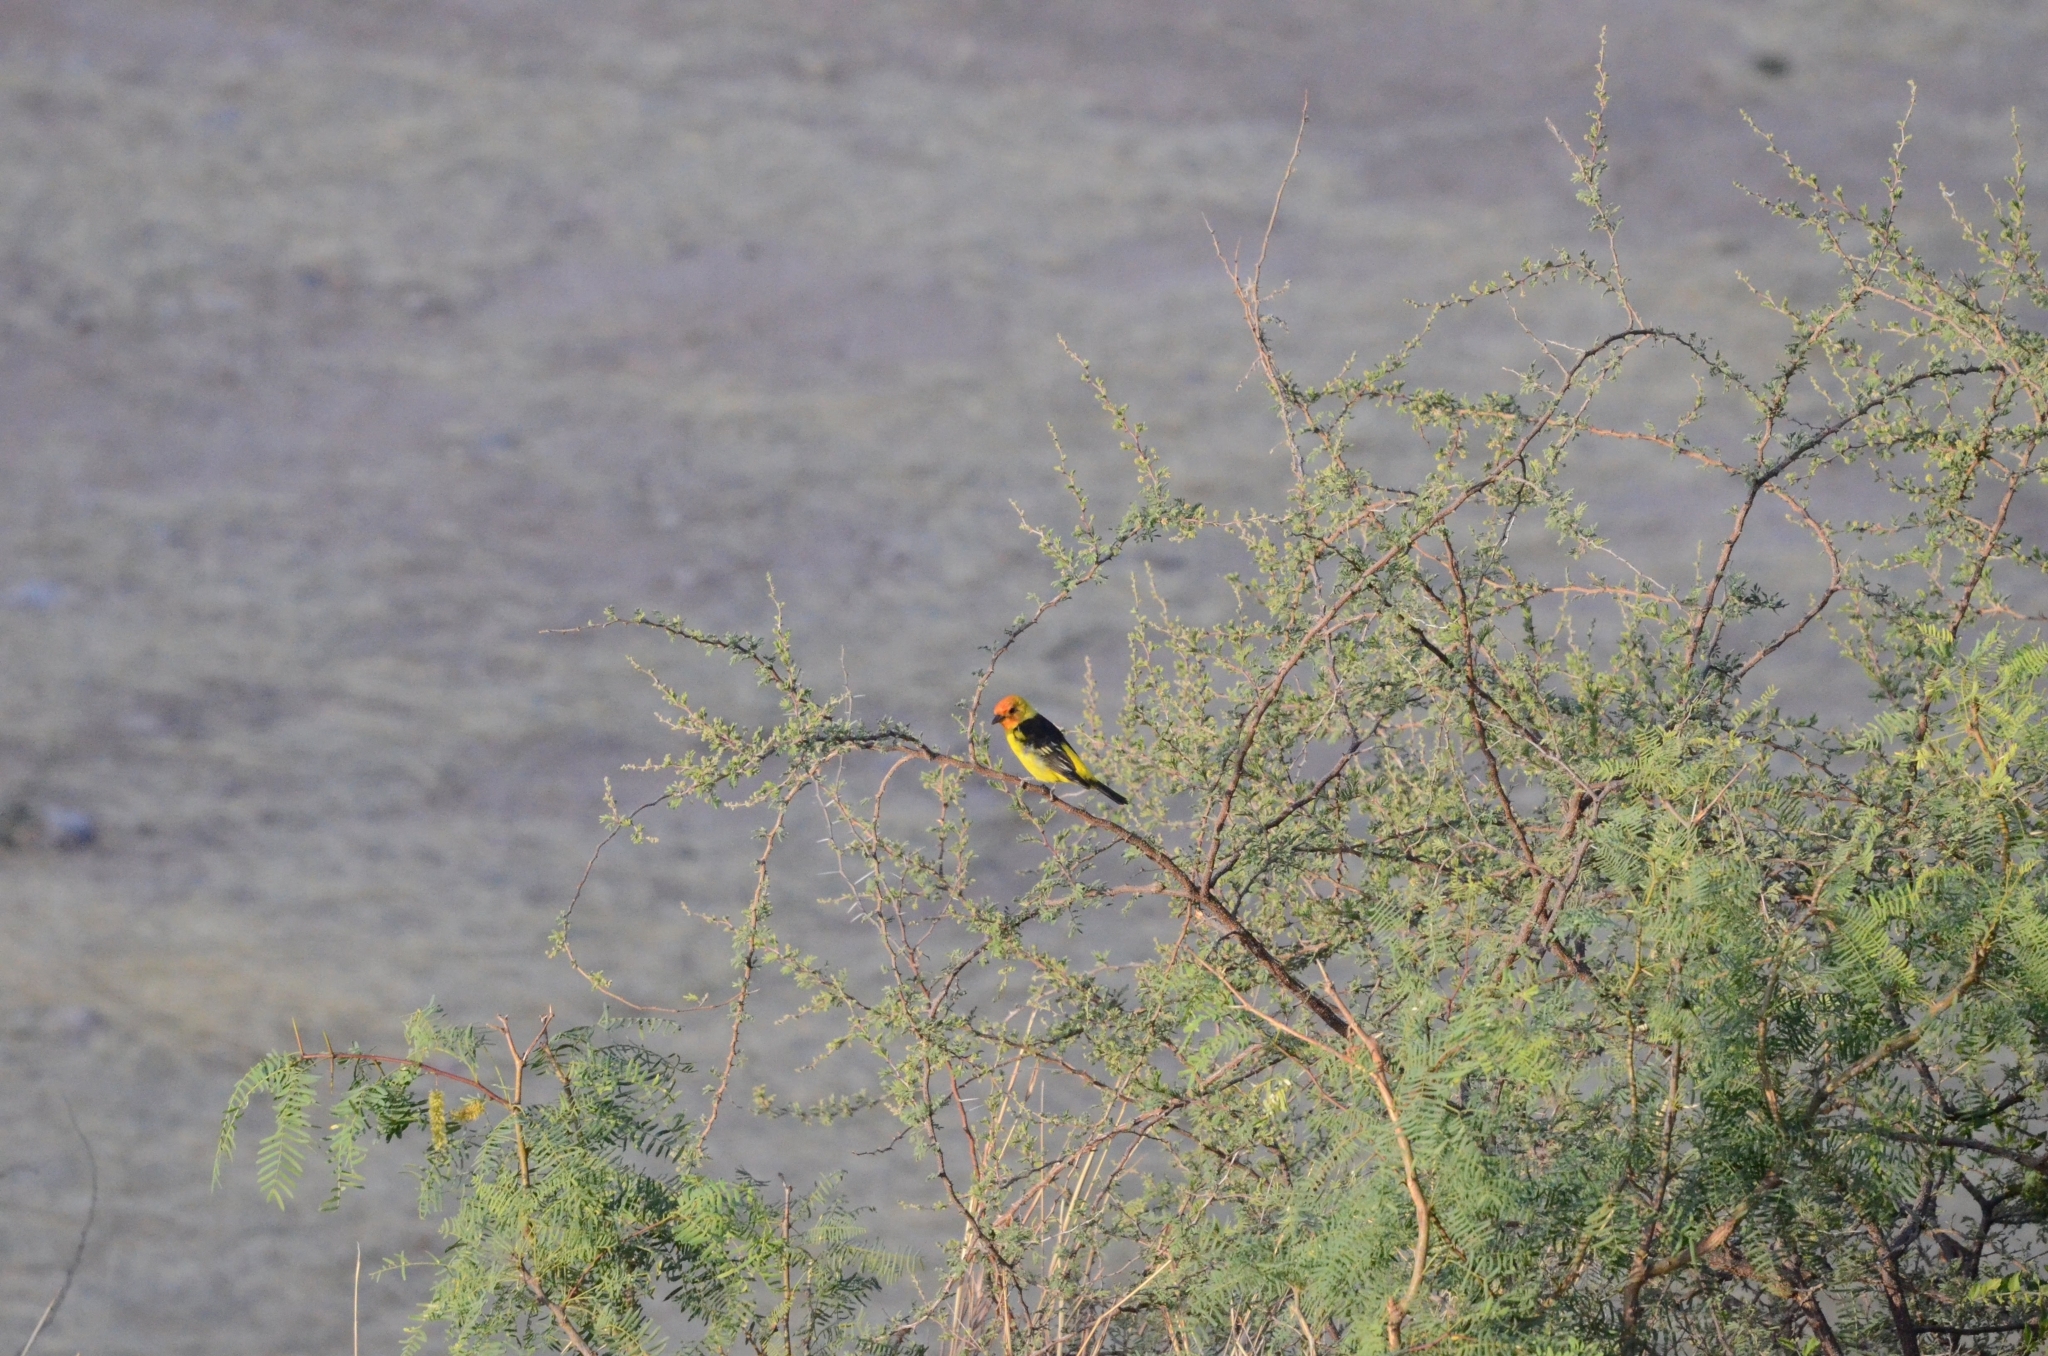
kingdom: Animalia
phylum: Chordata
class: Aves
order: Passeriformes
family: Cardinalidae
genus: Piranga
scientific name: Piranga ludoviciana
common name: Western tanager
